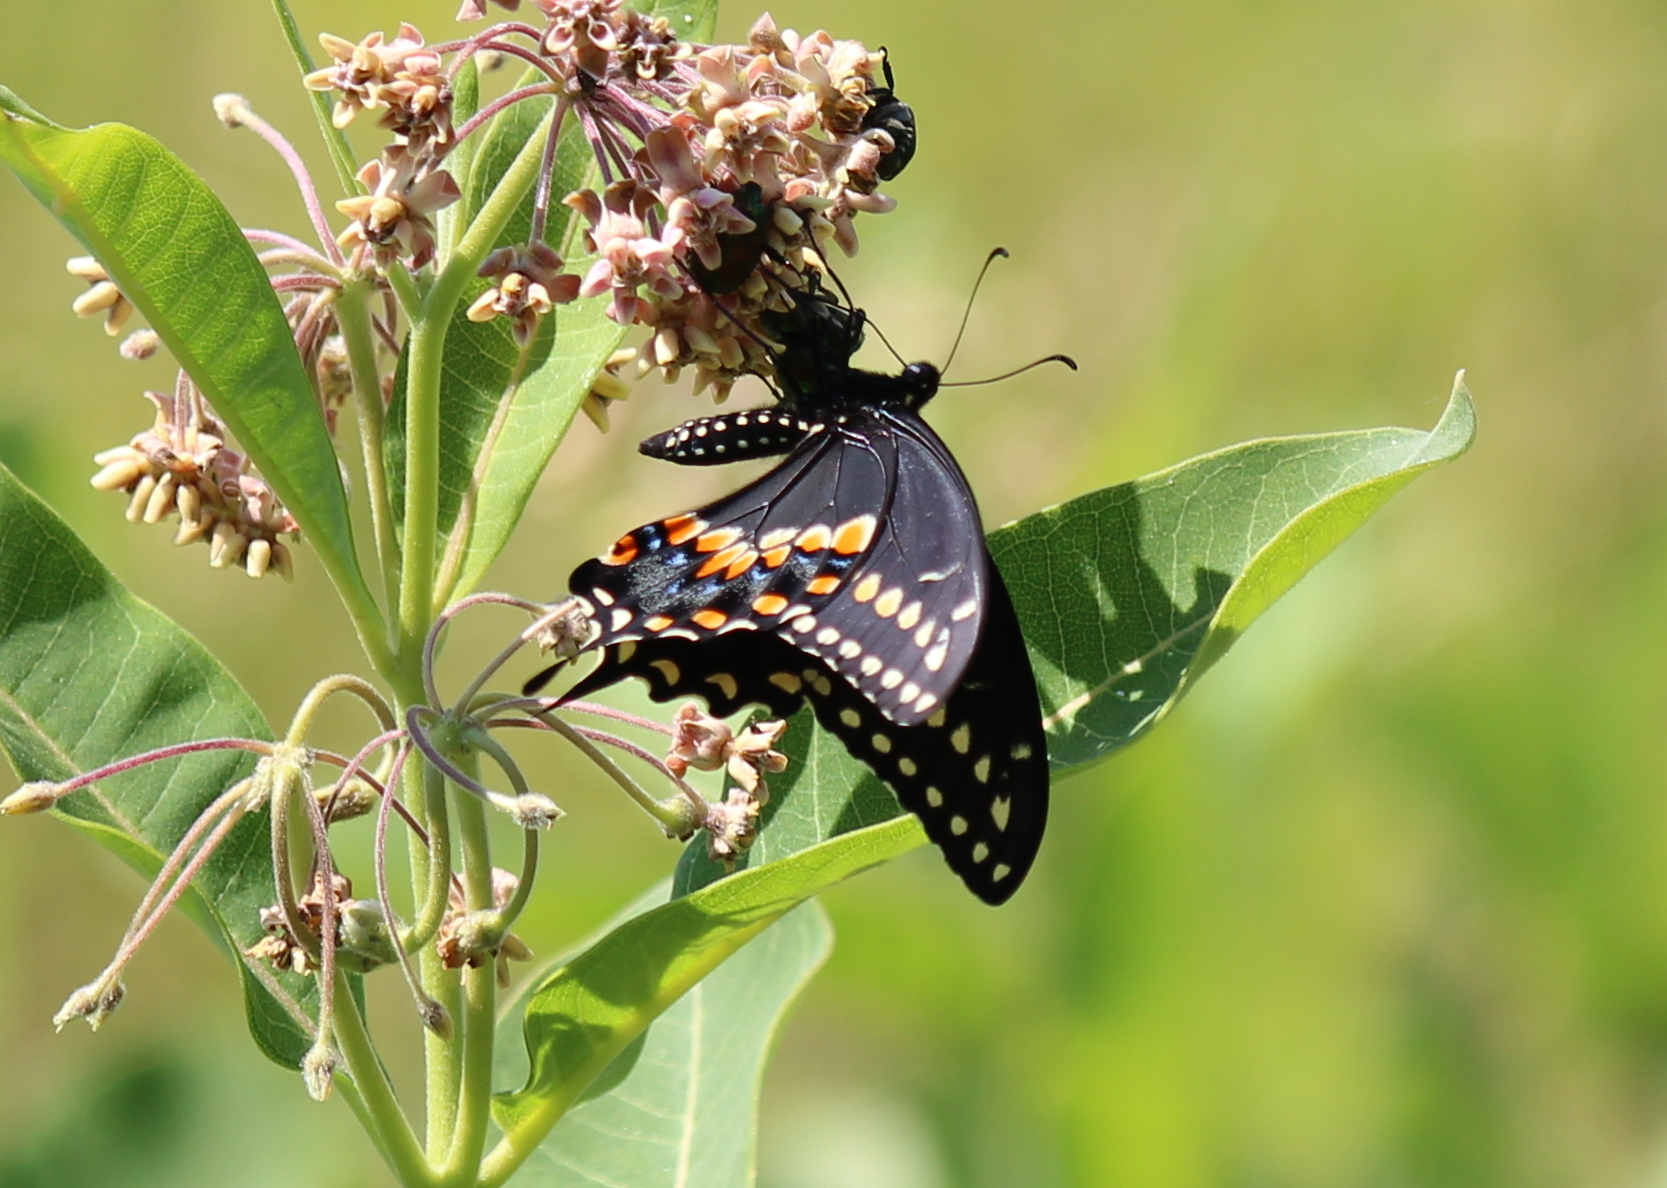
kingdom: Animalia
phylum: Arthropoda
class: Insecta
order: Lepidoptera
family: Papilionidae
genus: Papilio
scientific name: Papilio polyxenes
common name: Black swallowtail
